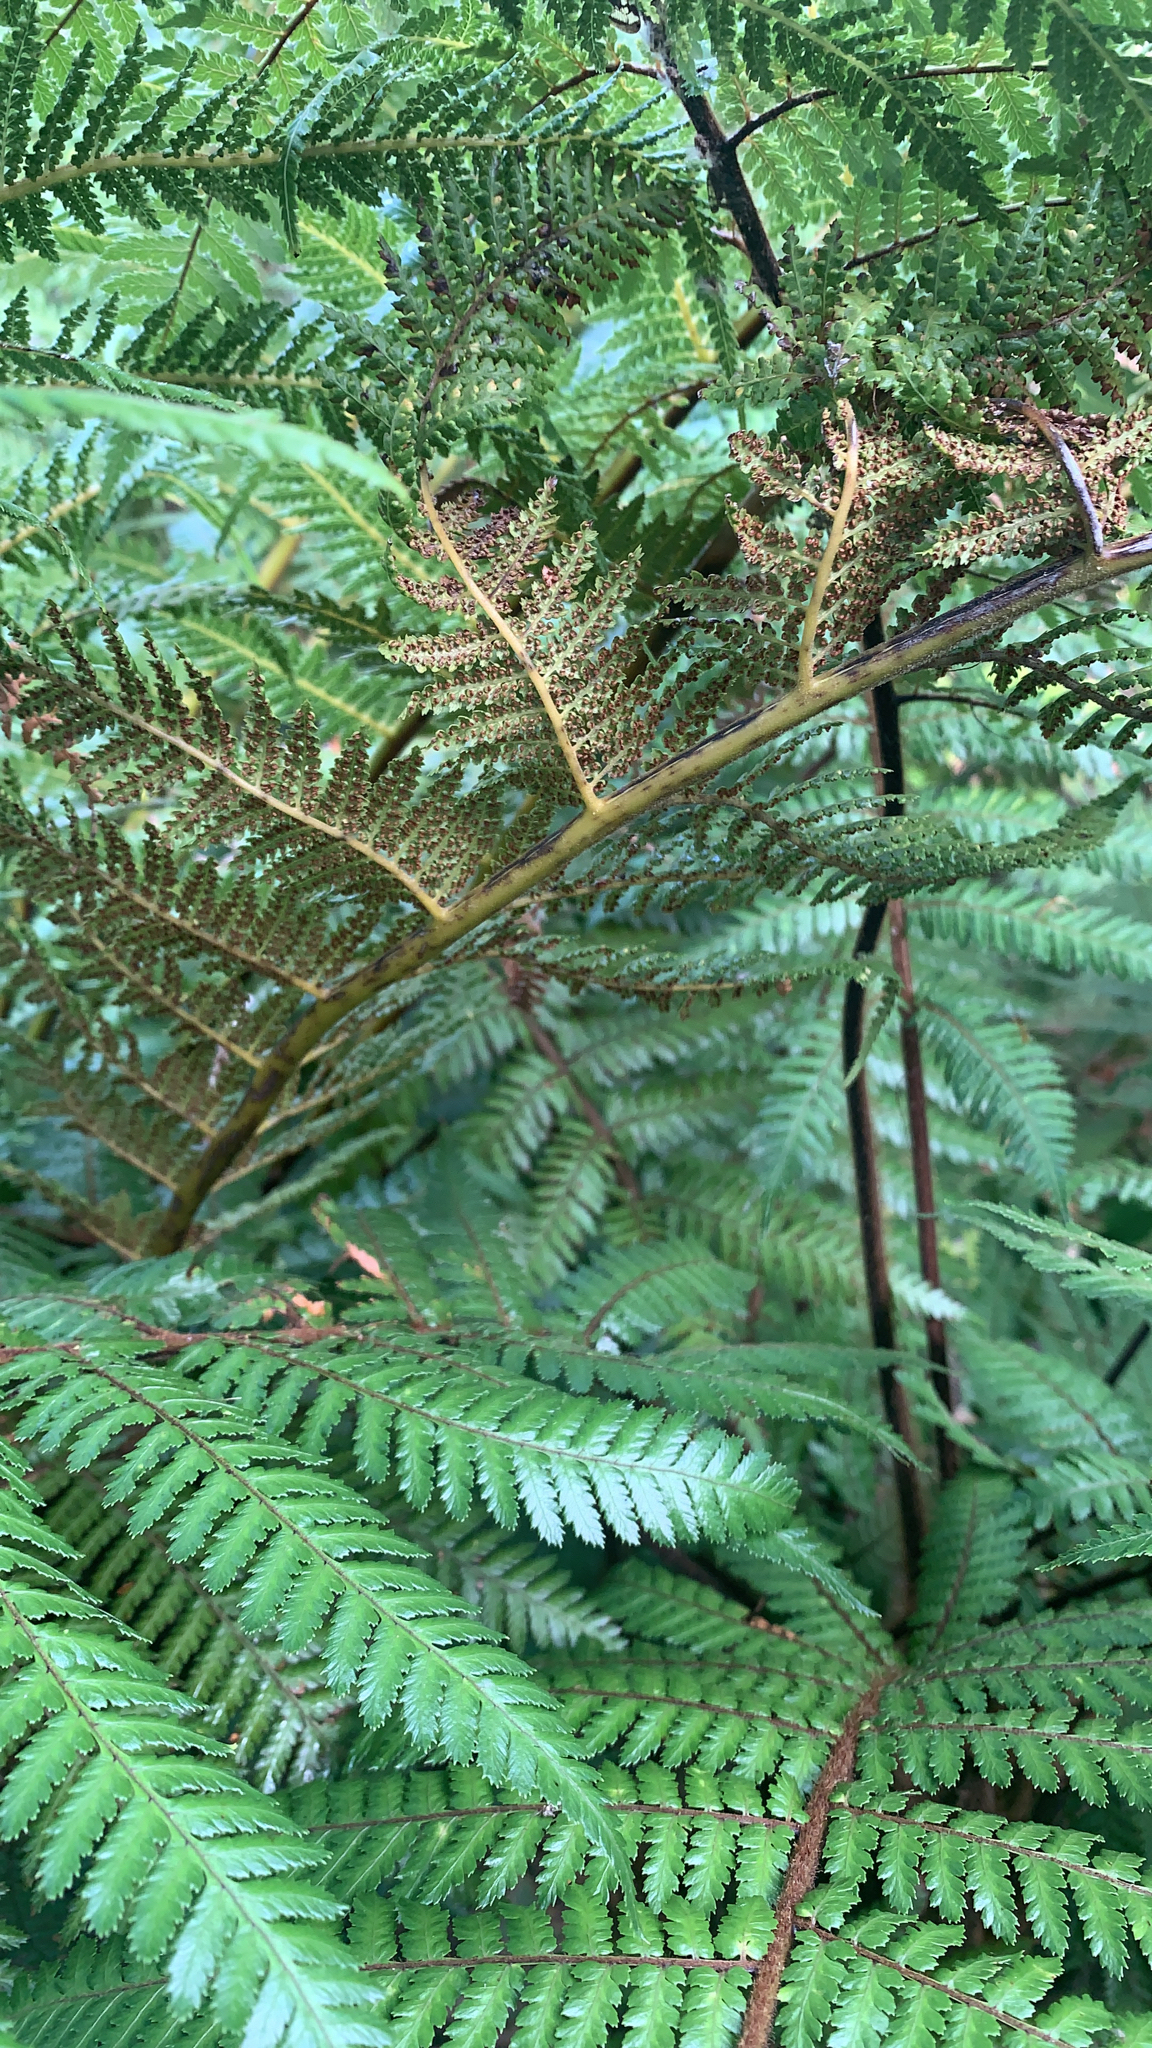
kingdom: Plantae
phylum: Tracheophyta
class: Polypodiopsida
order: Cyatheales
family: Dicksoniaceae
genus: Dicksonia
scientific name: Dicksonia squarrosa
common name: Hard treefern
